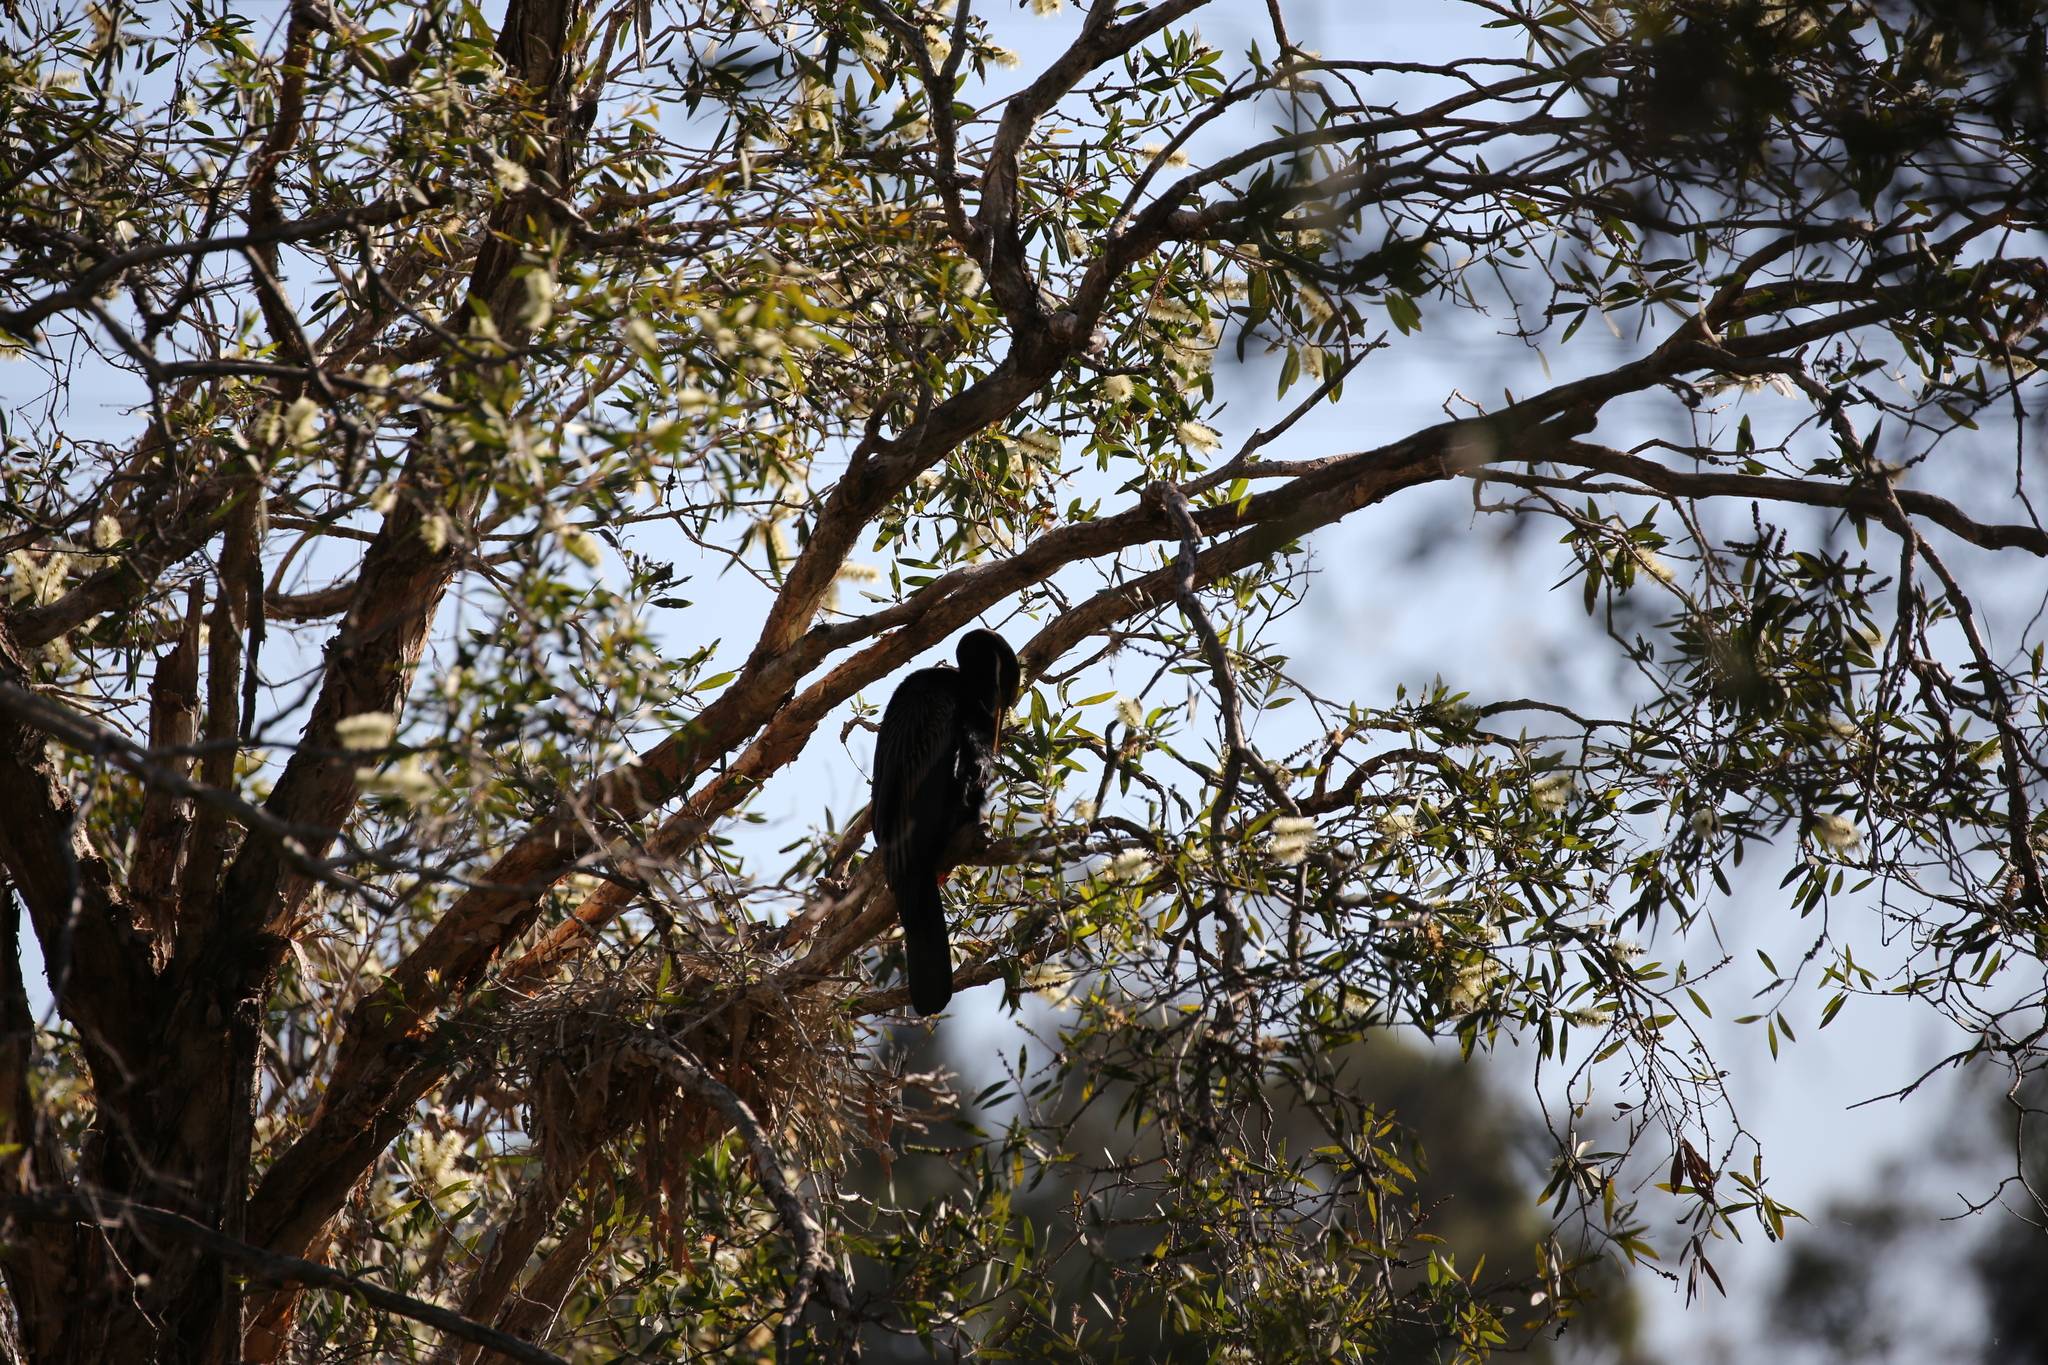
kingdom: Animalia
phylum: Chordata
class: Aves
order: Suliformes
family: Anhingidae
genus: Anhinga
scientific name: Anhinga novaehollandiae
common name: Australasian darter
